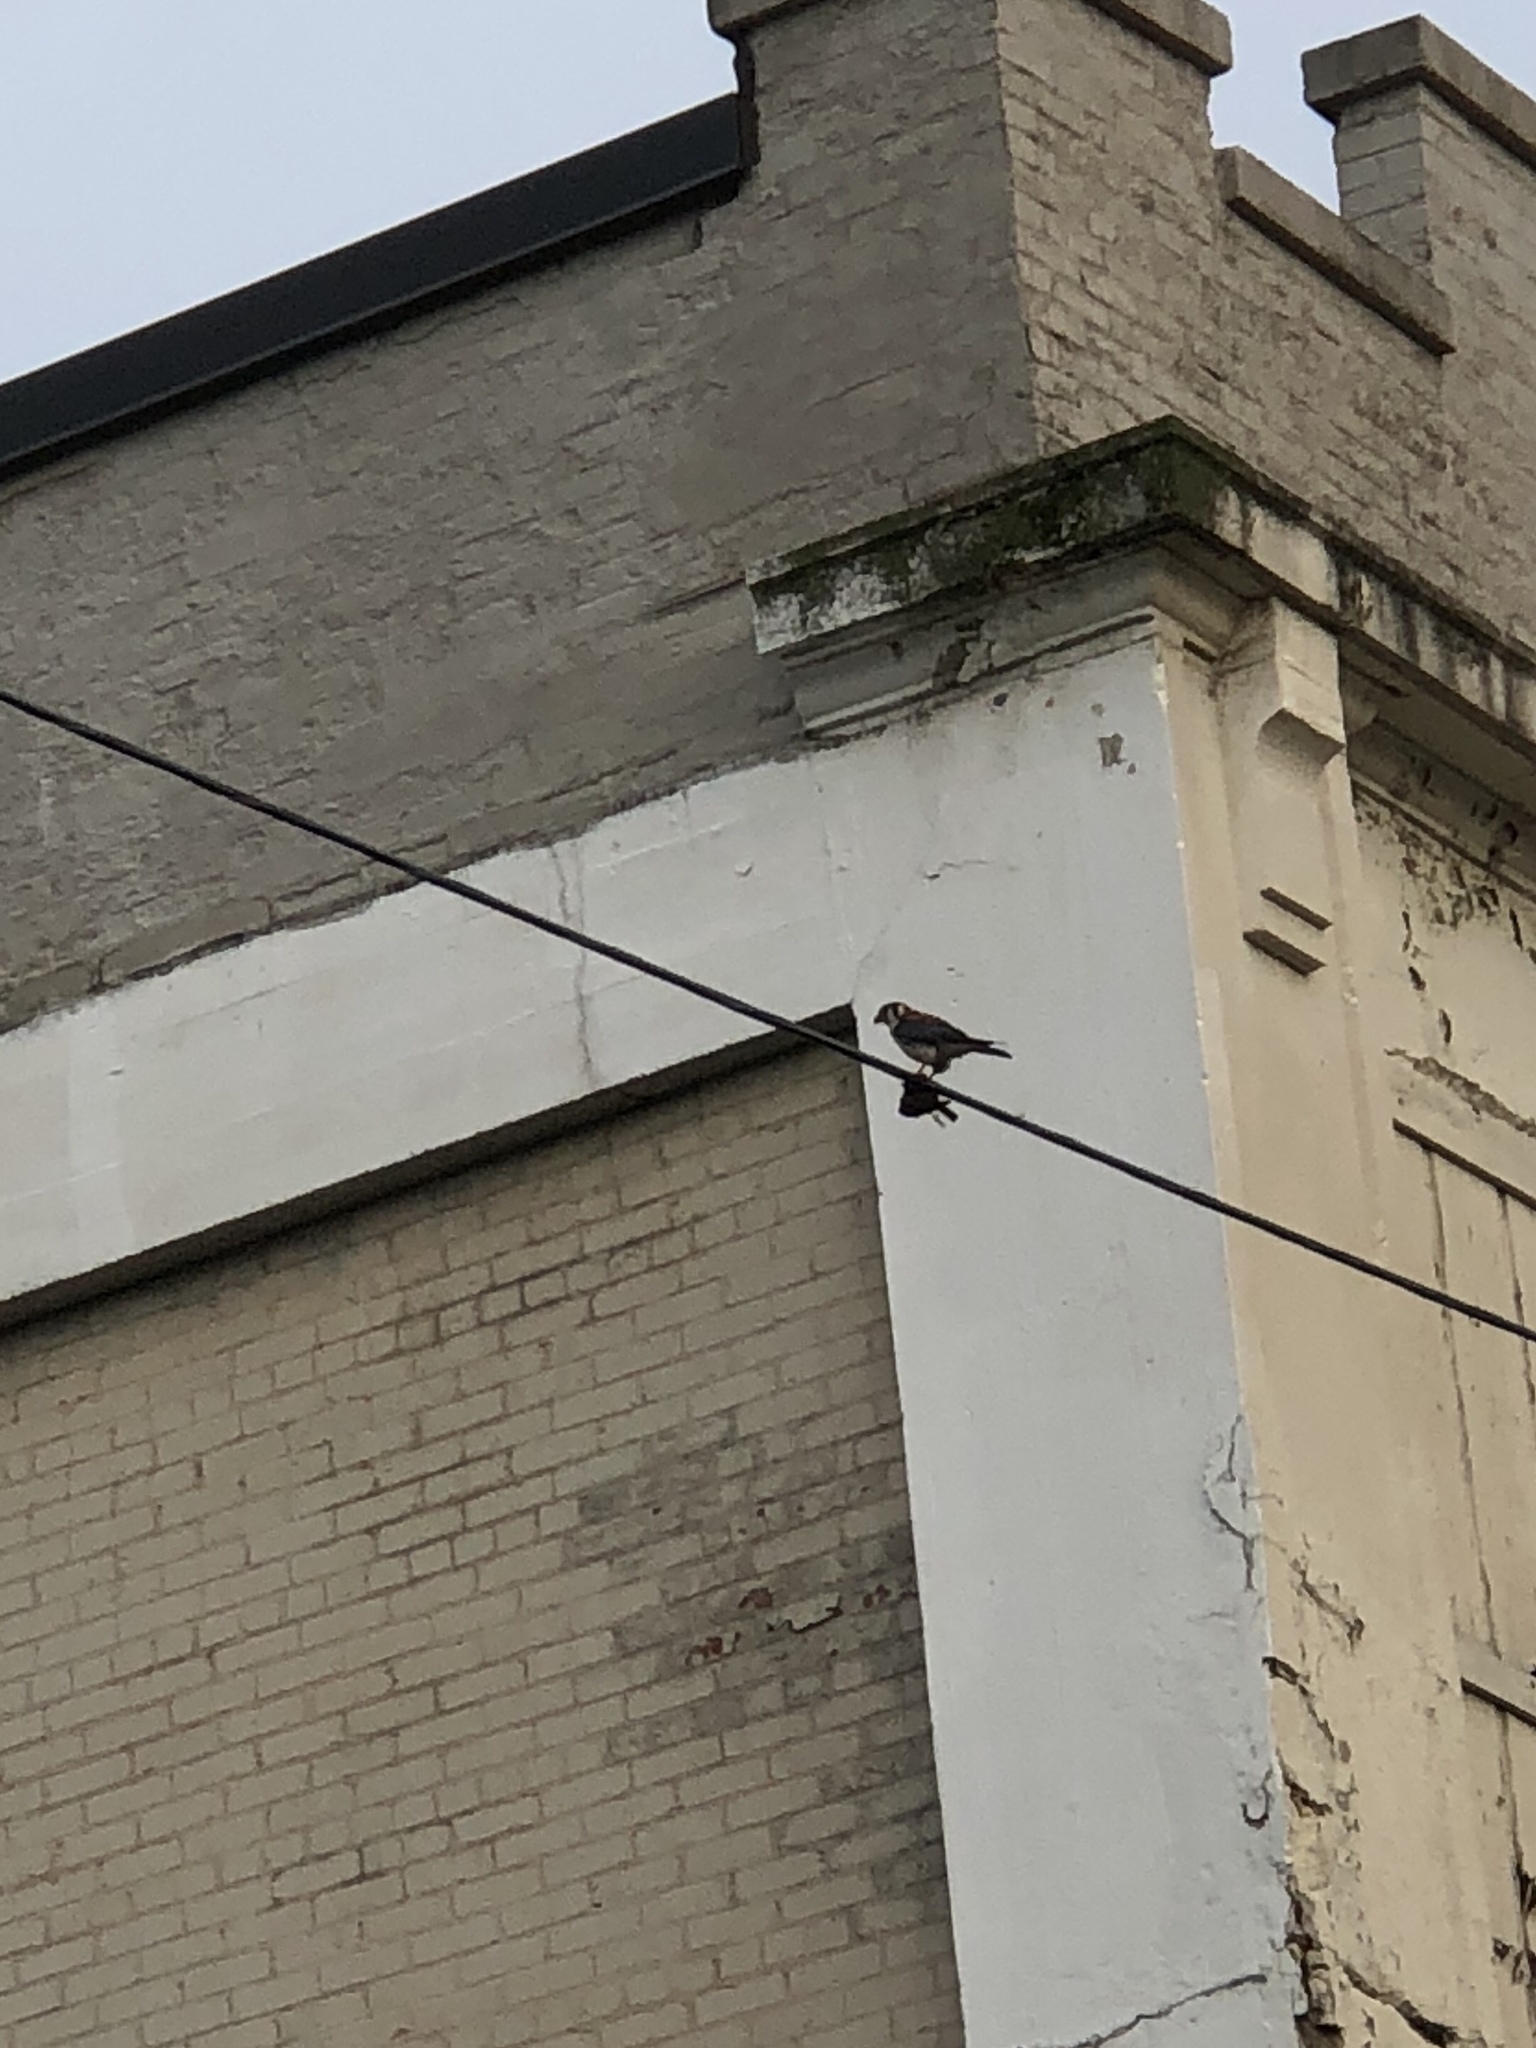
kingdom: Animalia
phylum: Chordata
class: Aves
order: Falconiformes
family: Falconidae
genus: Falco
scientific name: Falco sparverius
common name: American kestrel
